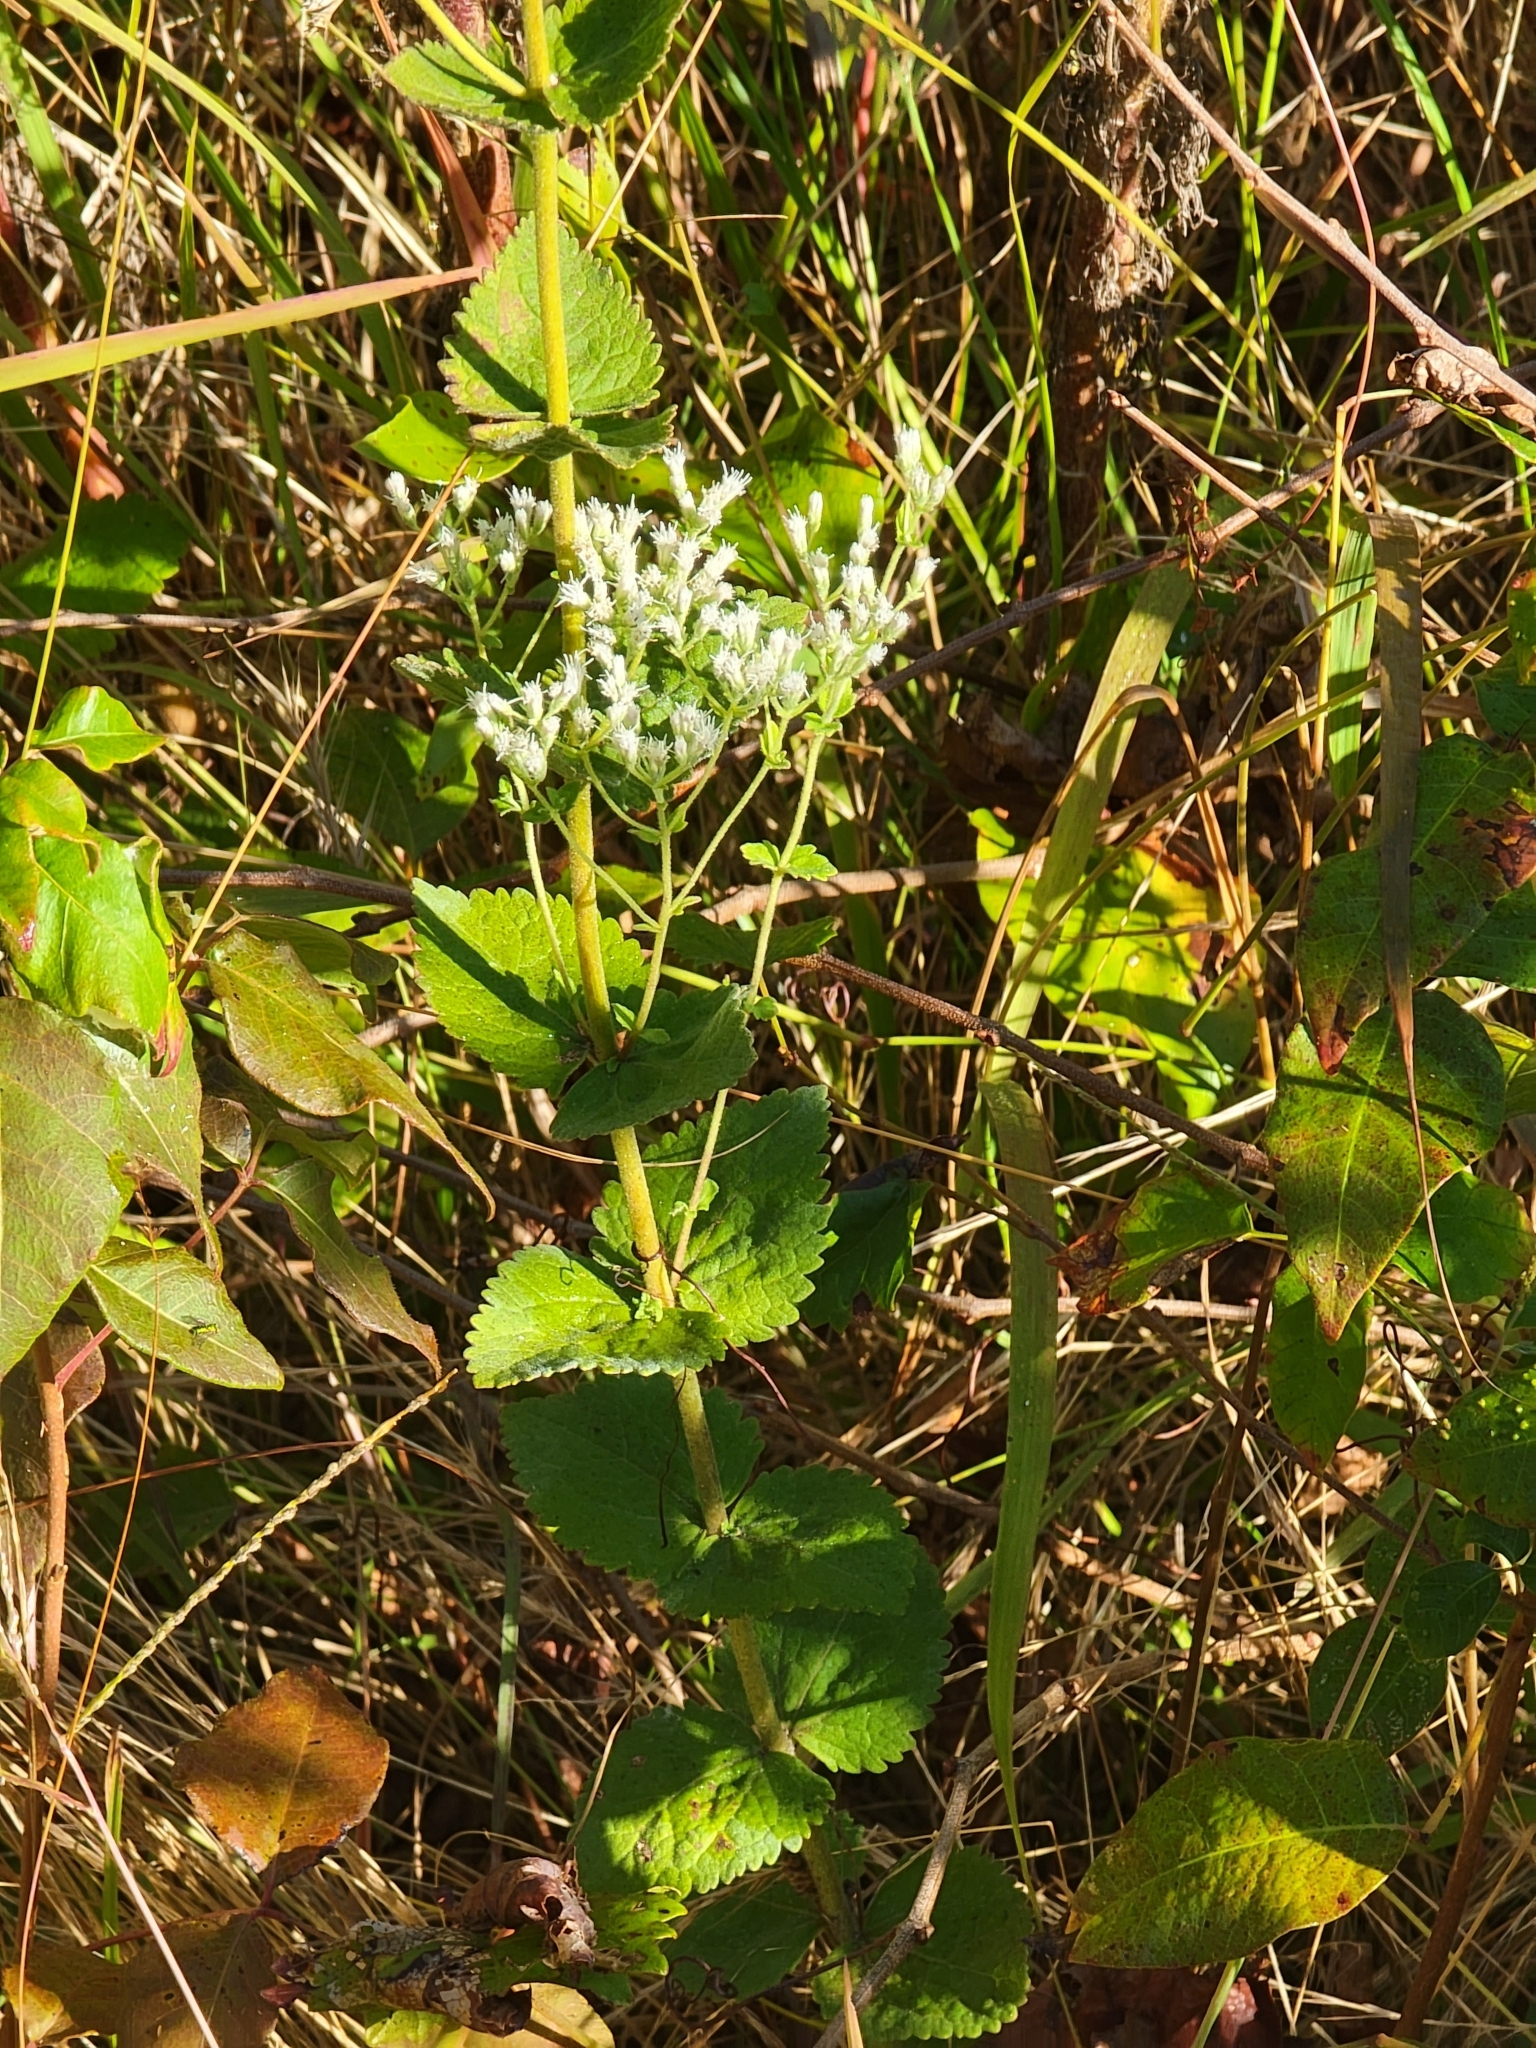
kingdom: Plantae
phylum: Tracheophyta
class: Magnoliopsida
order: Asterales
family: Asteraceae
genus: Eupatorium
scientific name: Eupatorium rotundifolium
